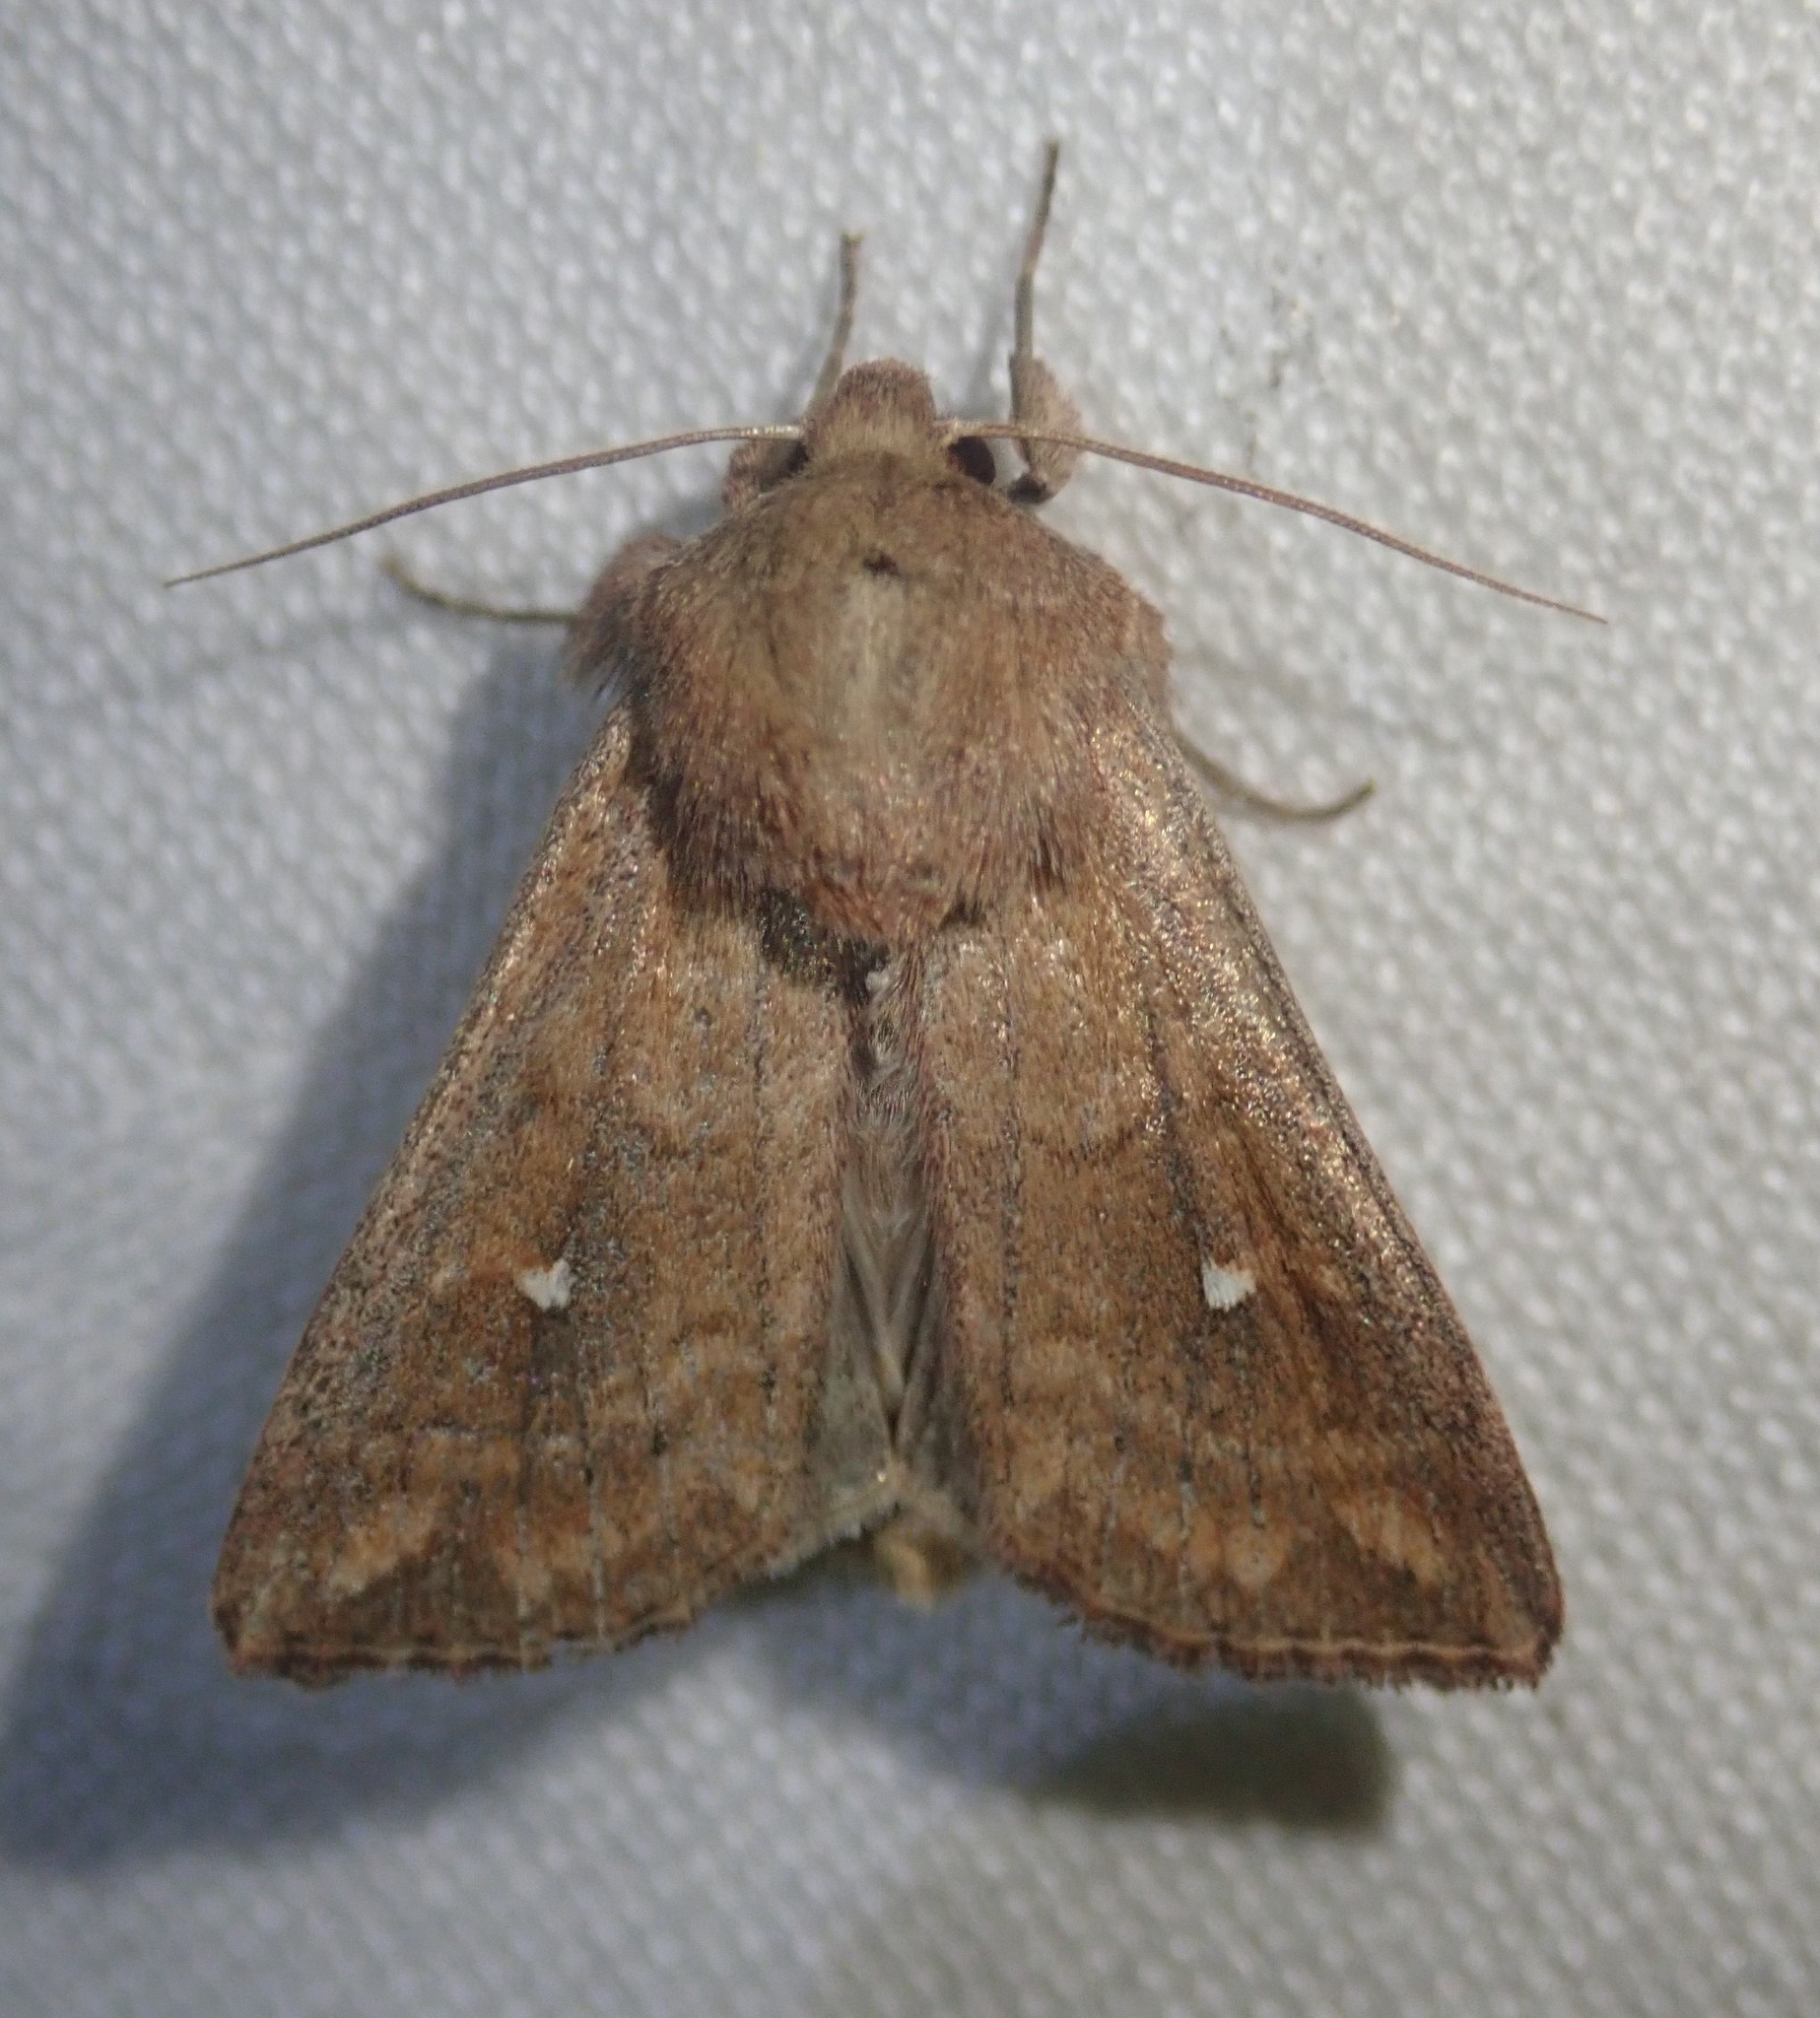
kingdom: Animalia
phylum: Arthropoda
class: Insecta
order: Lepidoptera
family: Noctuidae
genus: Mythimna
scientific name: Mythimna albipuncta
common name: White-point
